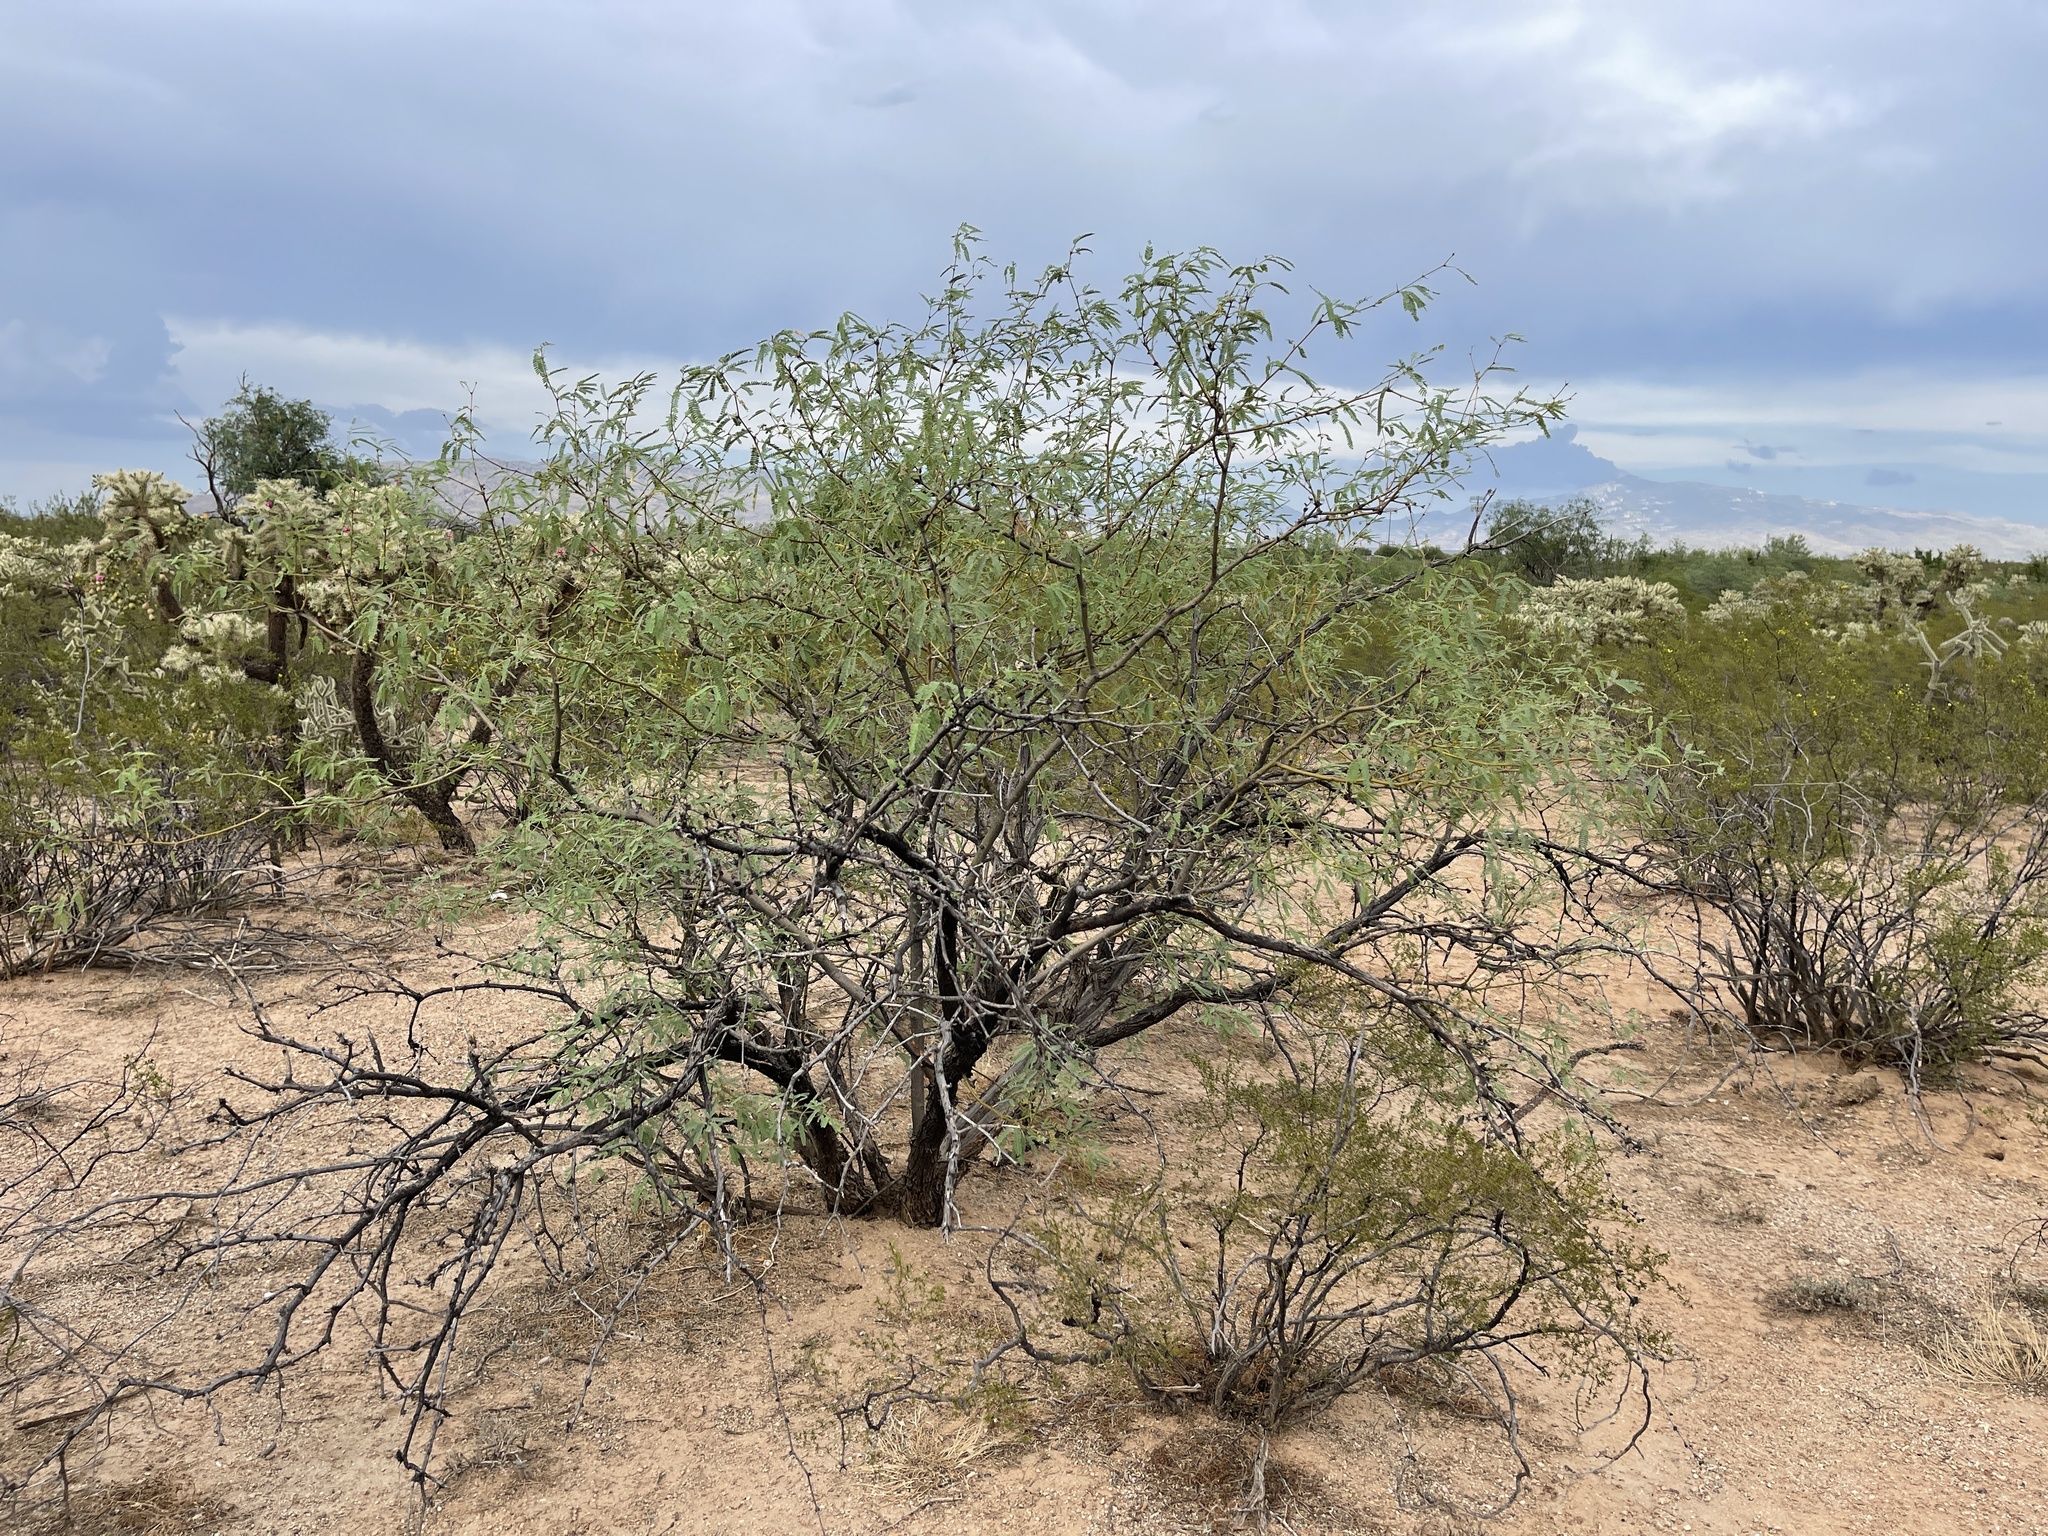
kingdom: Plantae
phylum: Tracheophyta
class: Magnoliopsida
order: Fabales
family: Fabaceae
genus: Prosopis
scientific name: Prosopis velutina
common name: Velvet mesquite
